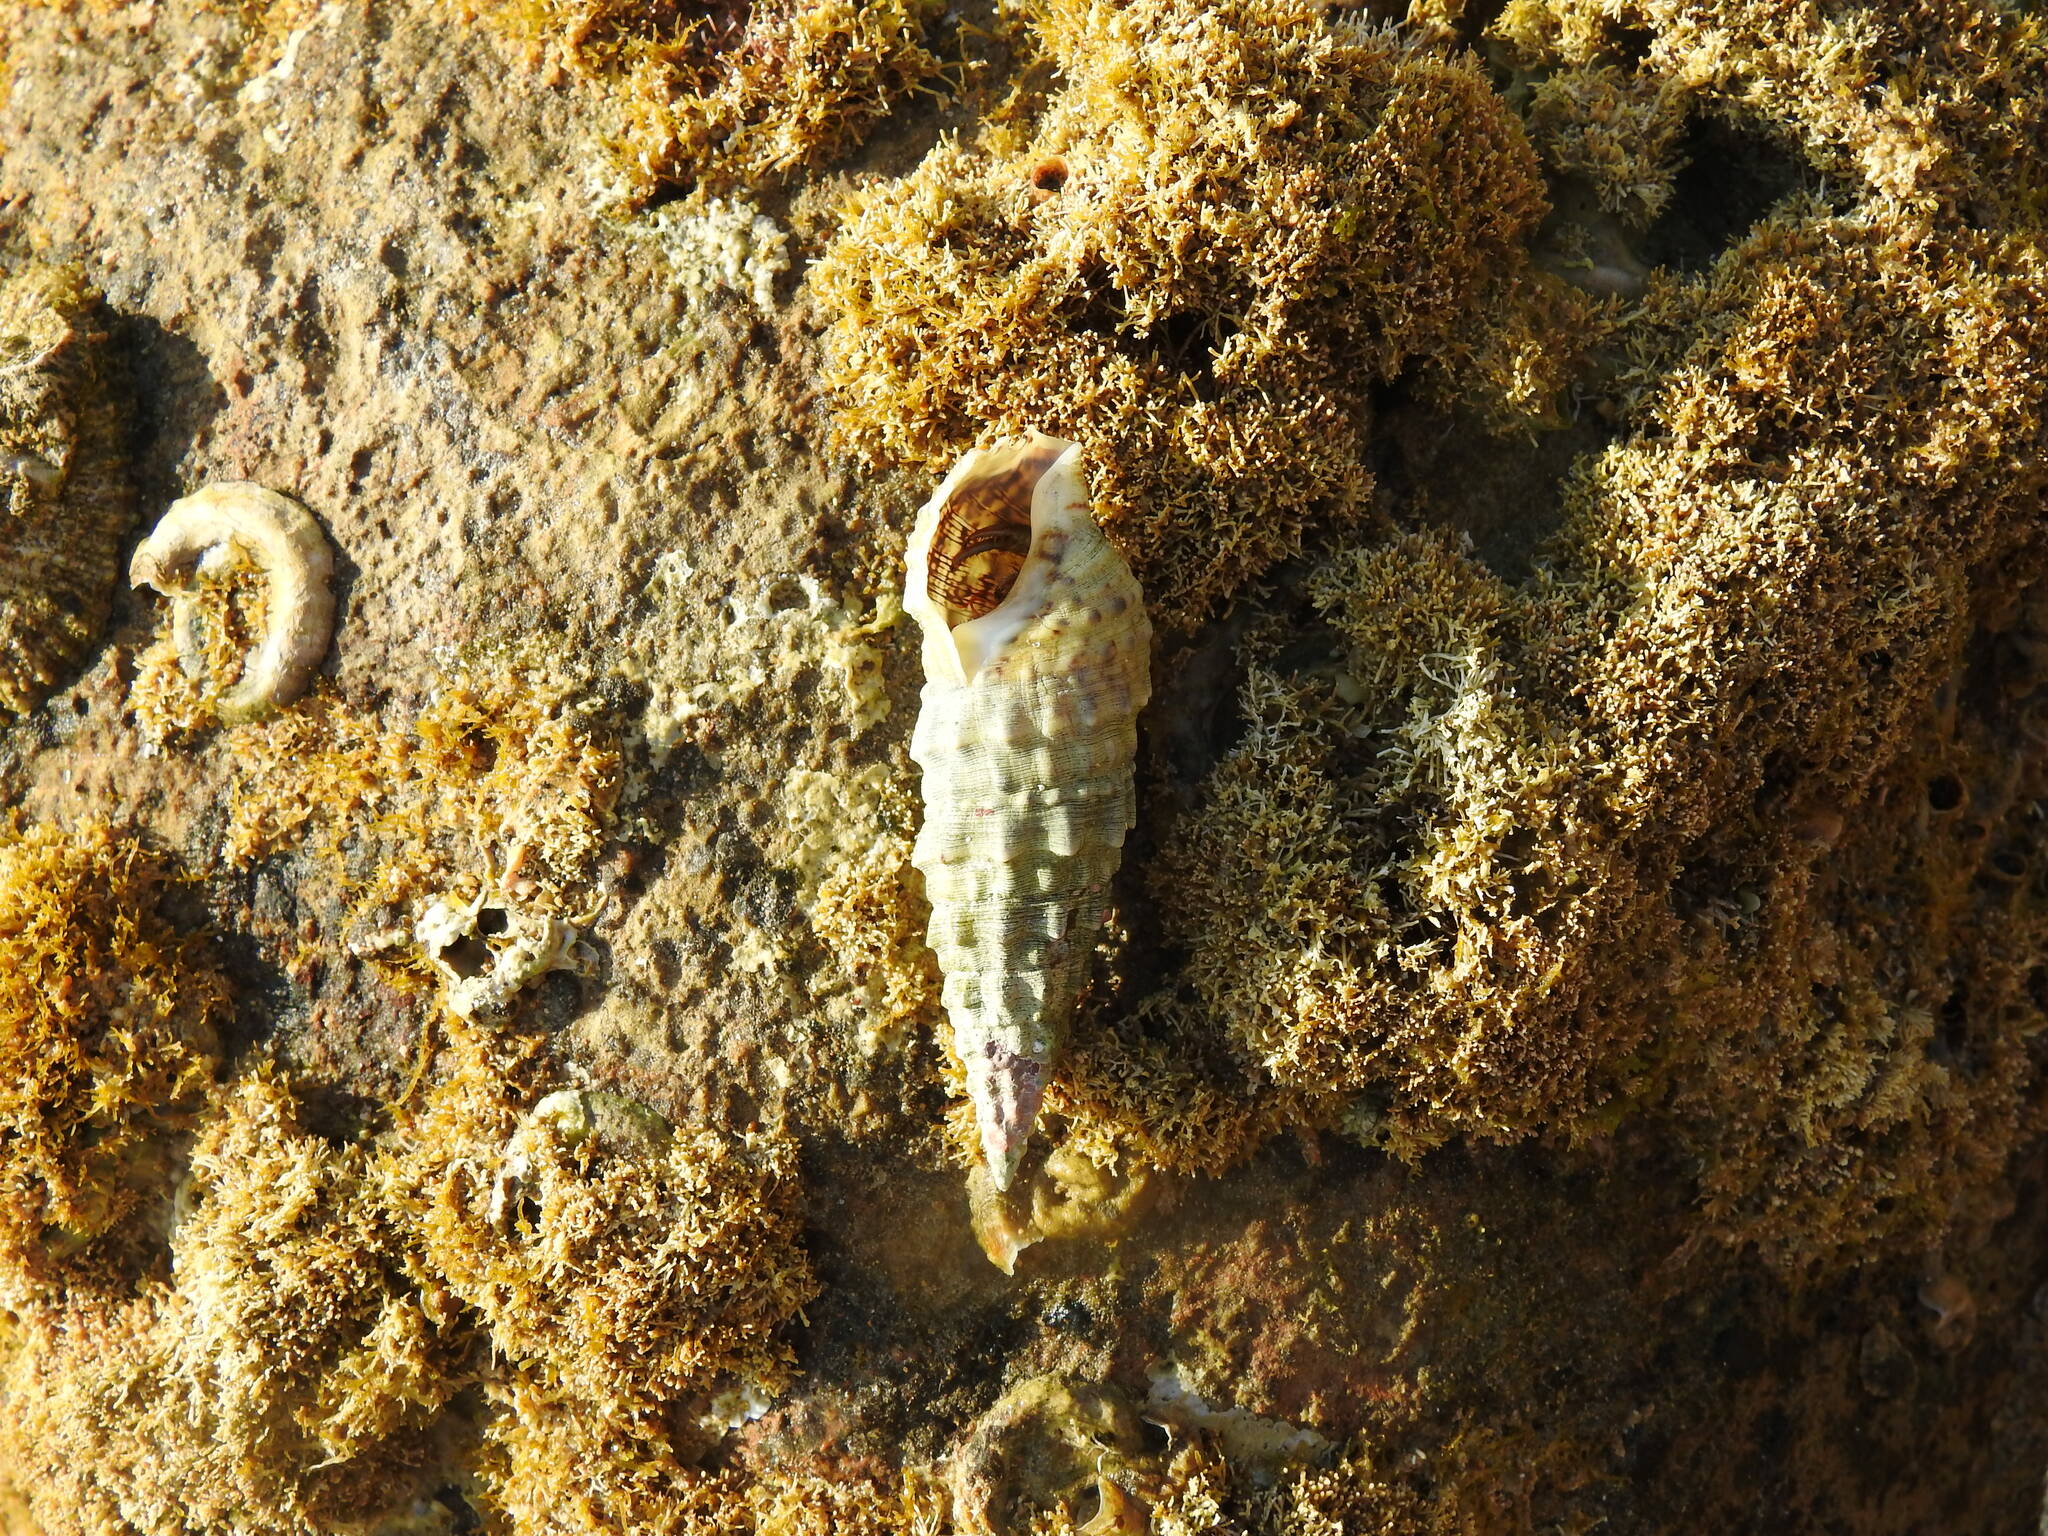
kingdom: Animalia
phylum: Mollusca
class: Gastropoda
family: Cerithiidae
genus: Cerithium
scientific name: Cerithium vulgatum
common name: European cerith
